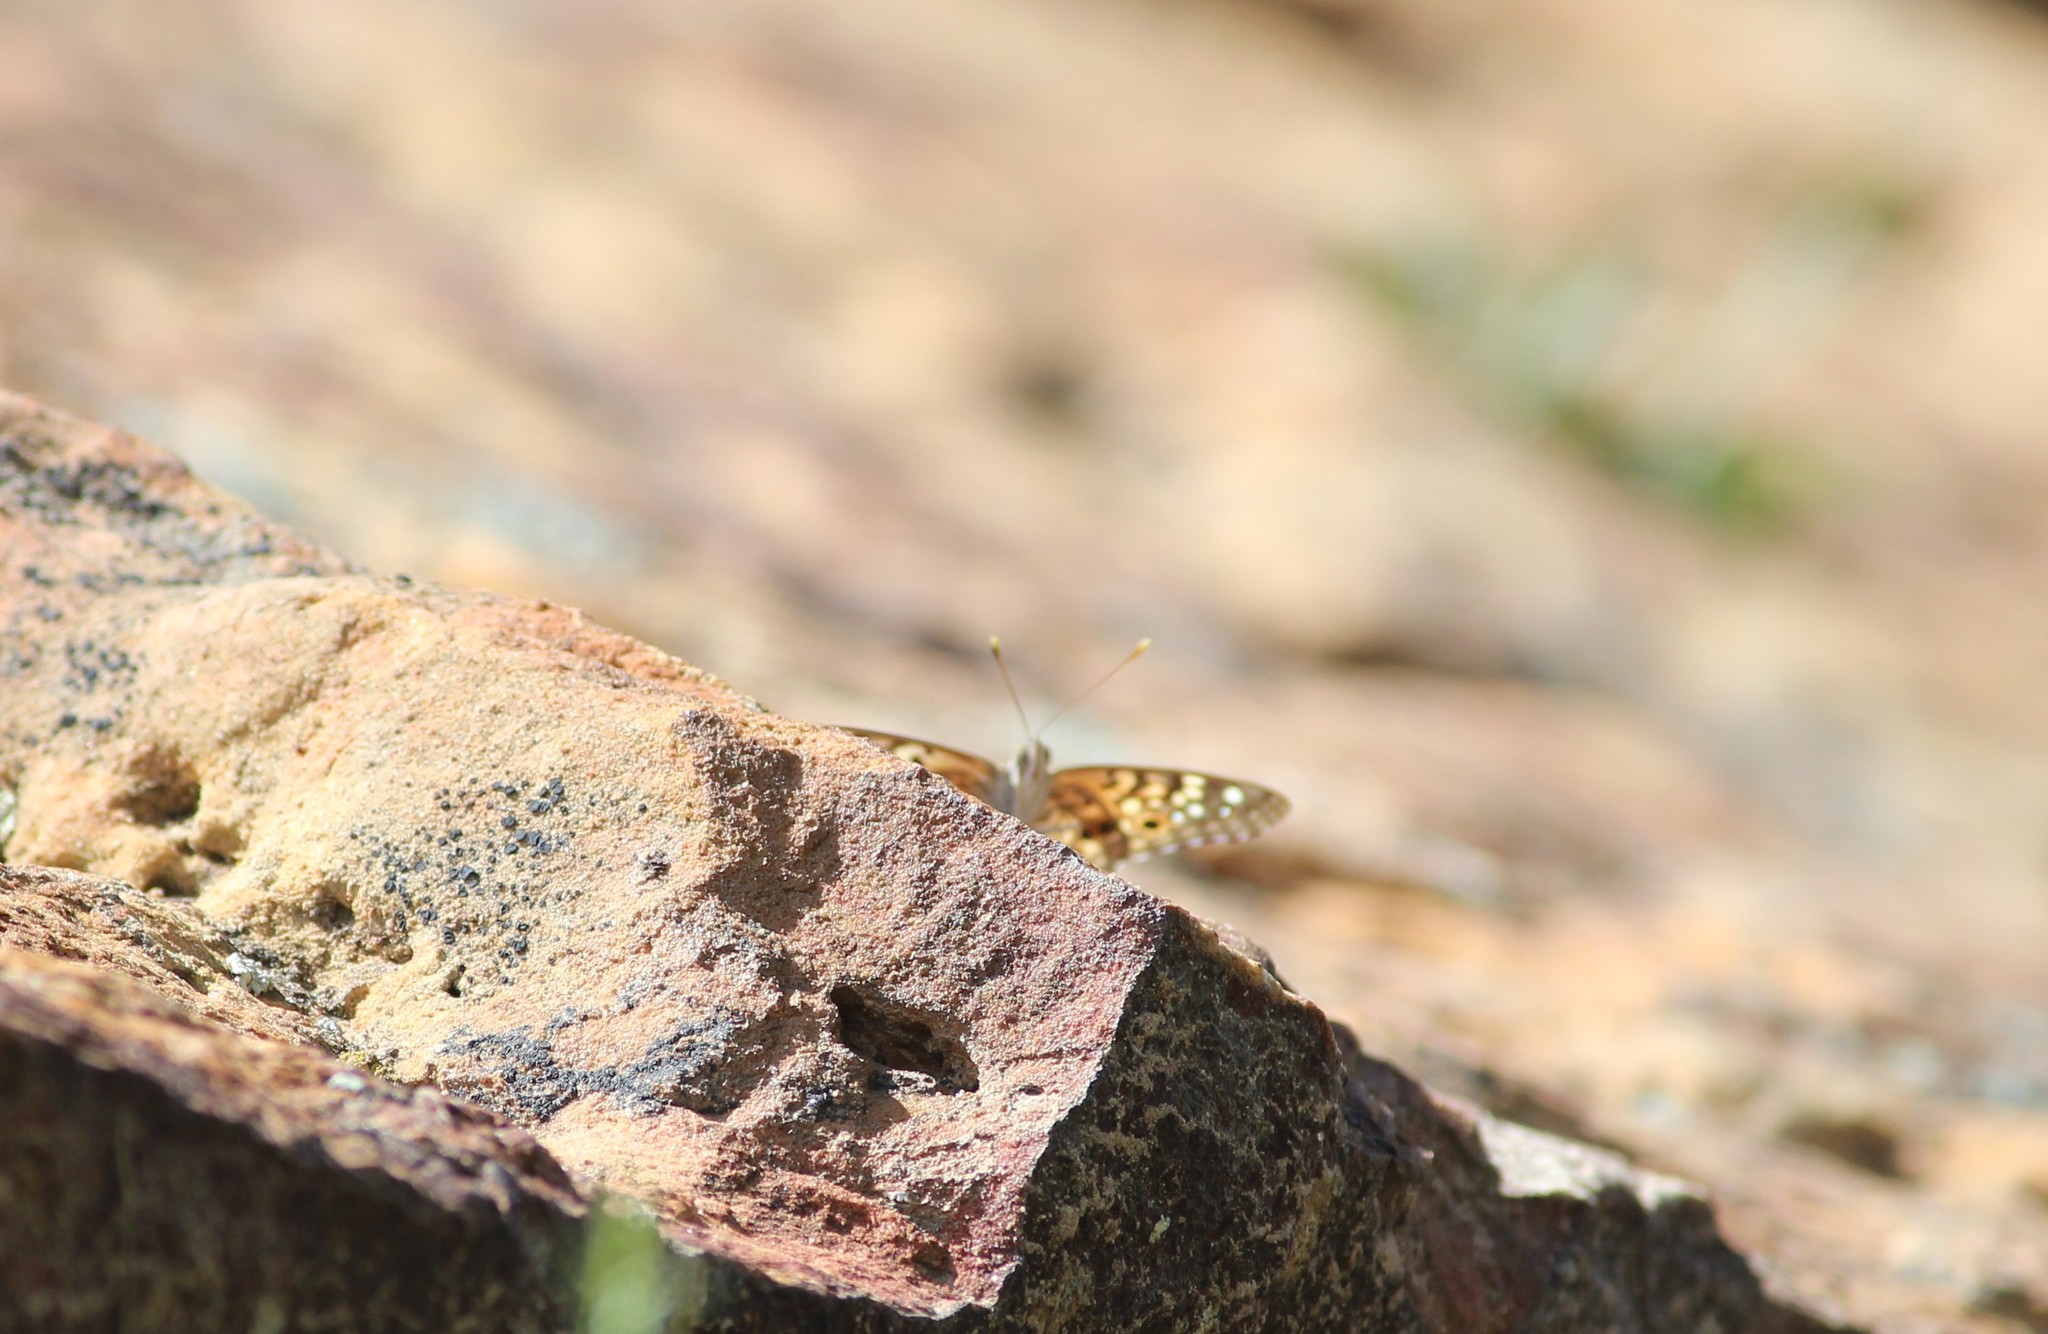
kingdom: Animalia
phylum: Arthropoda
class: Insecta
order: Lepidoptera
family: Nymphalidae
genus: Asterocampa
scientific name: Asterocampa celtis
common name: Hackberry emperor
